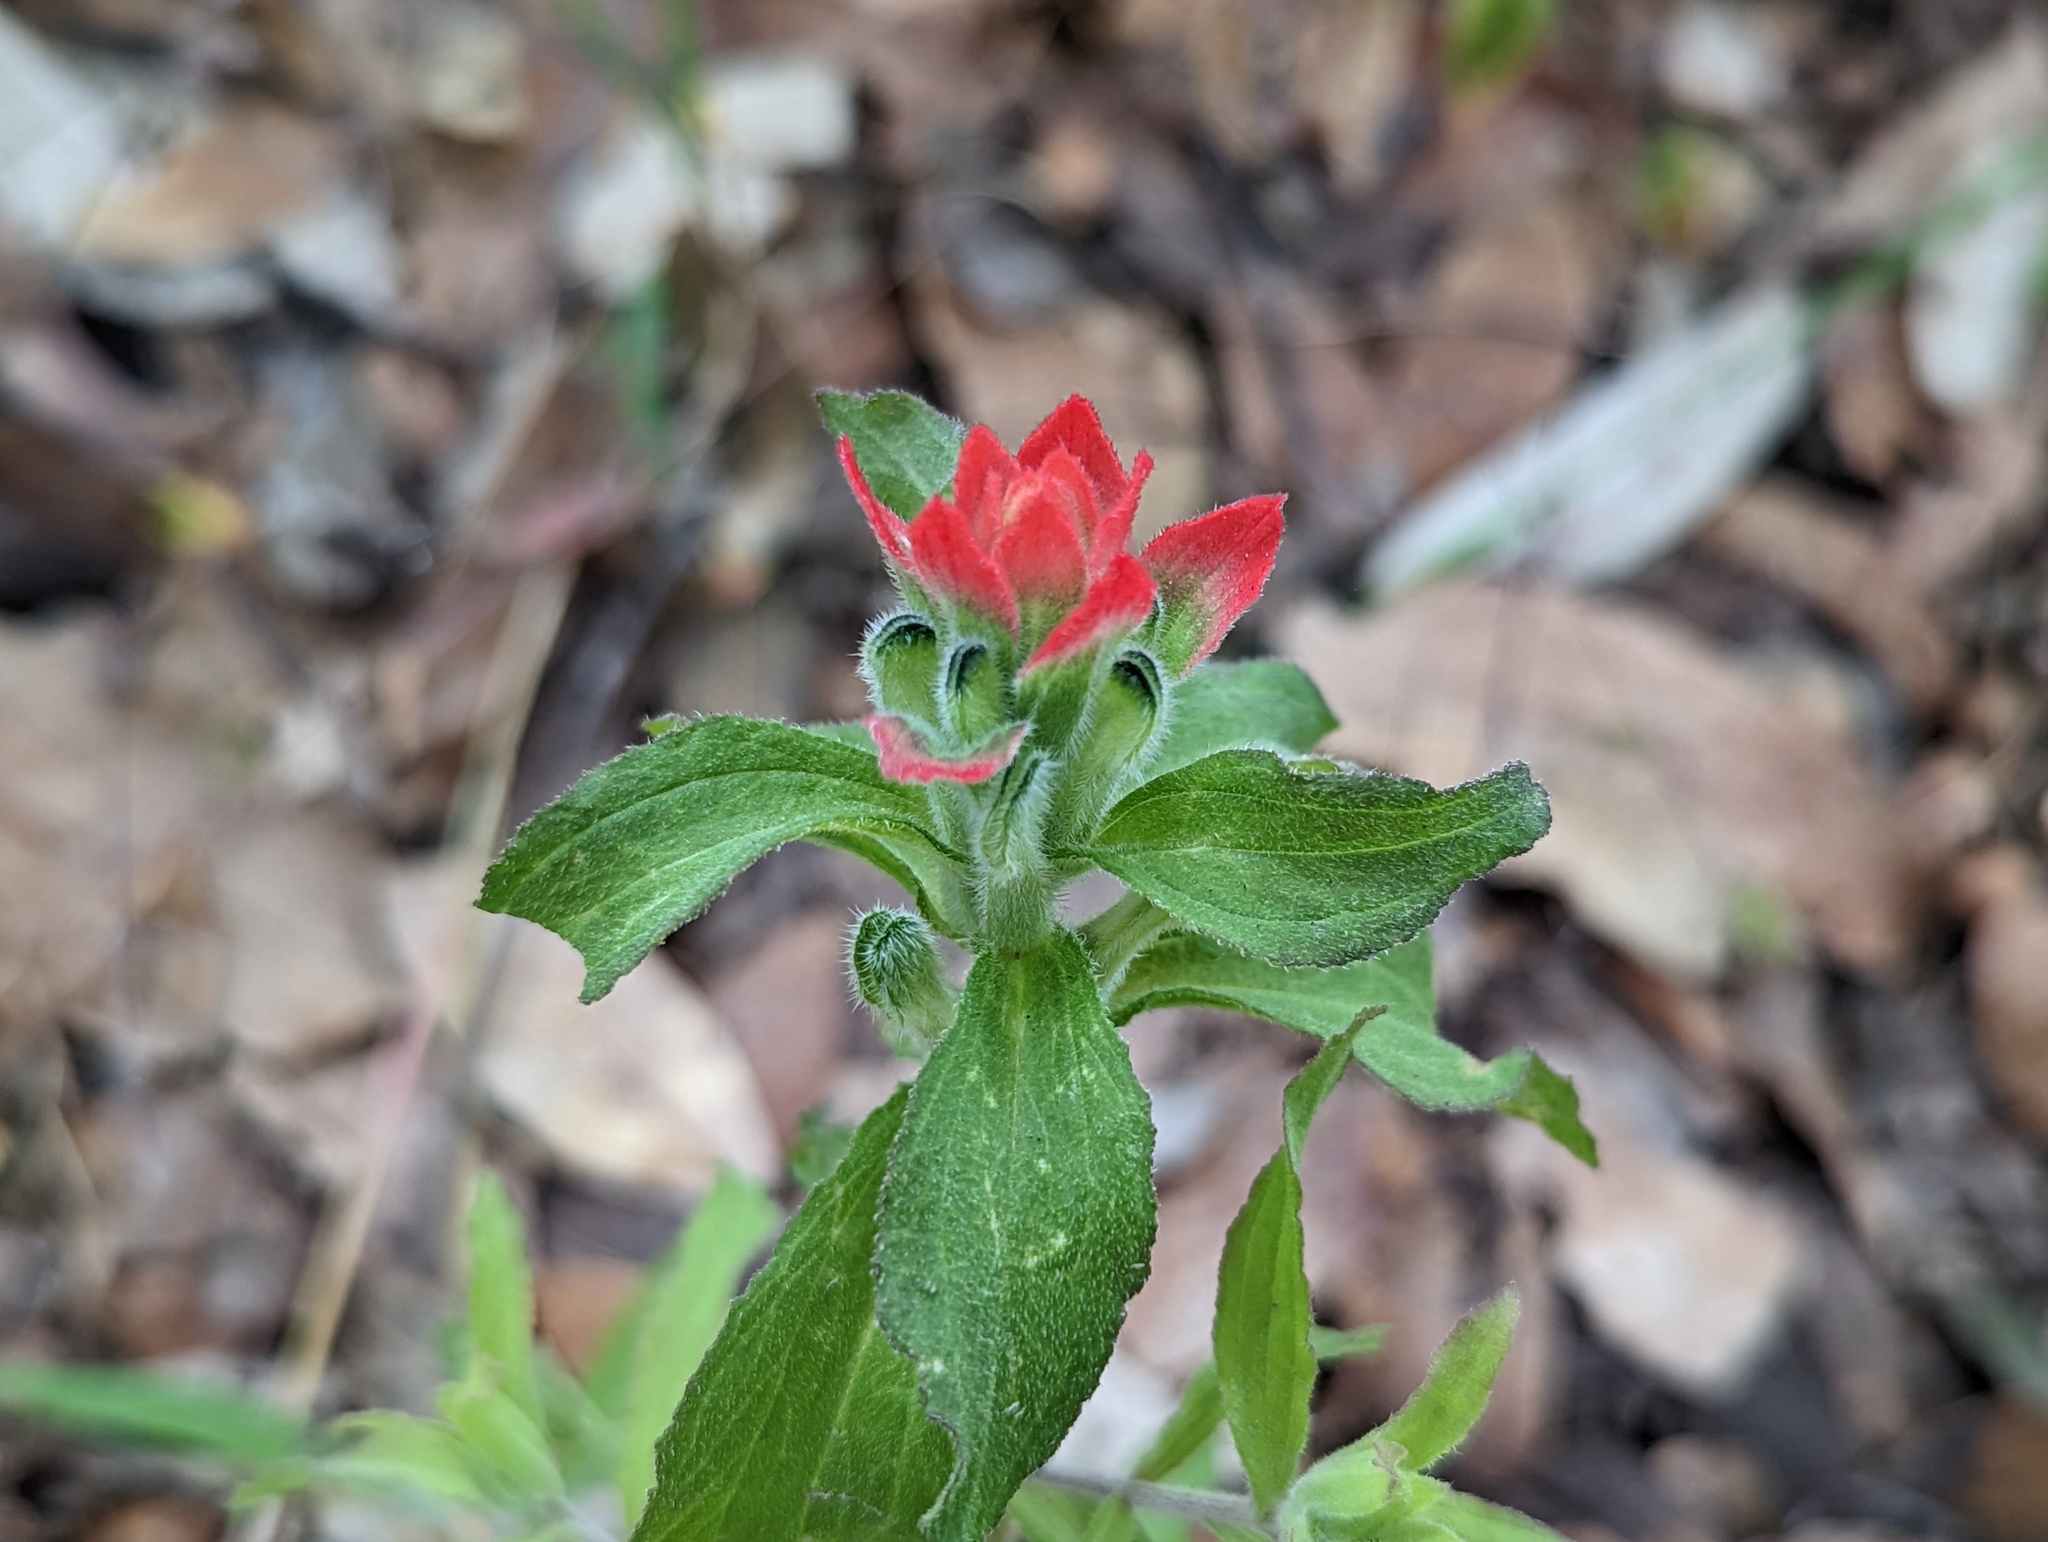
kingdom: Plantae
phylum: Tracheophyta
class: Magnoliopsida
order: Lamiales
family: Orobanchaceae
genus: Castilleja
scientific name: Castilleja arvensis
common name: Indian paintbrush
